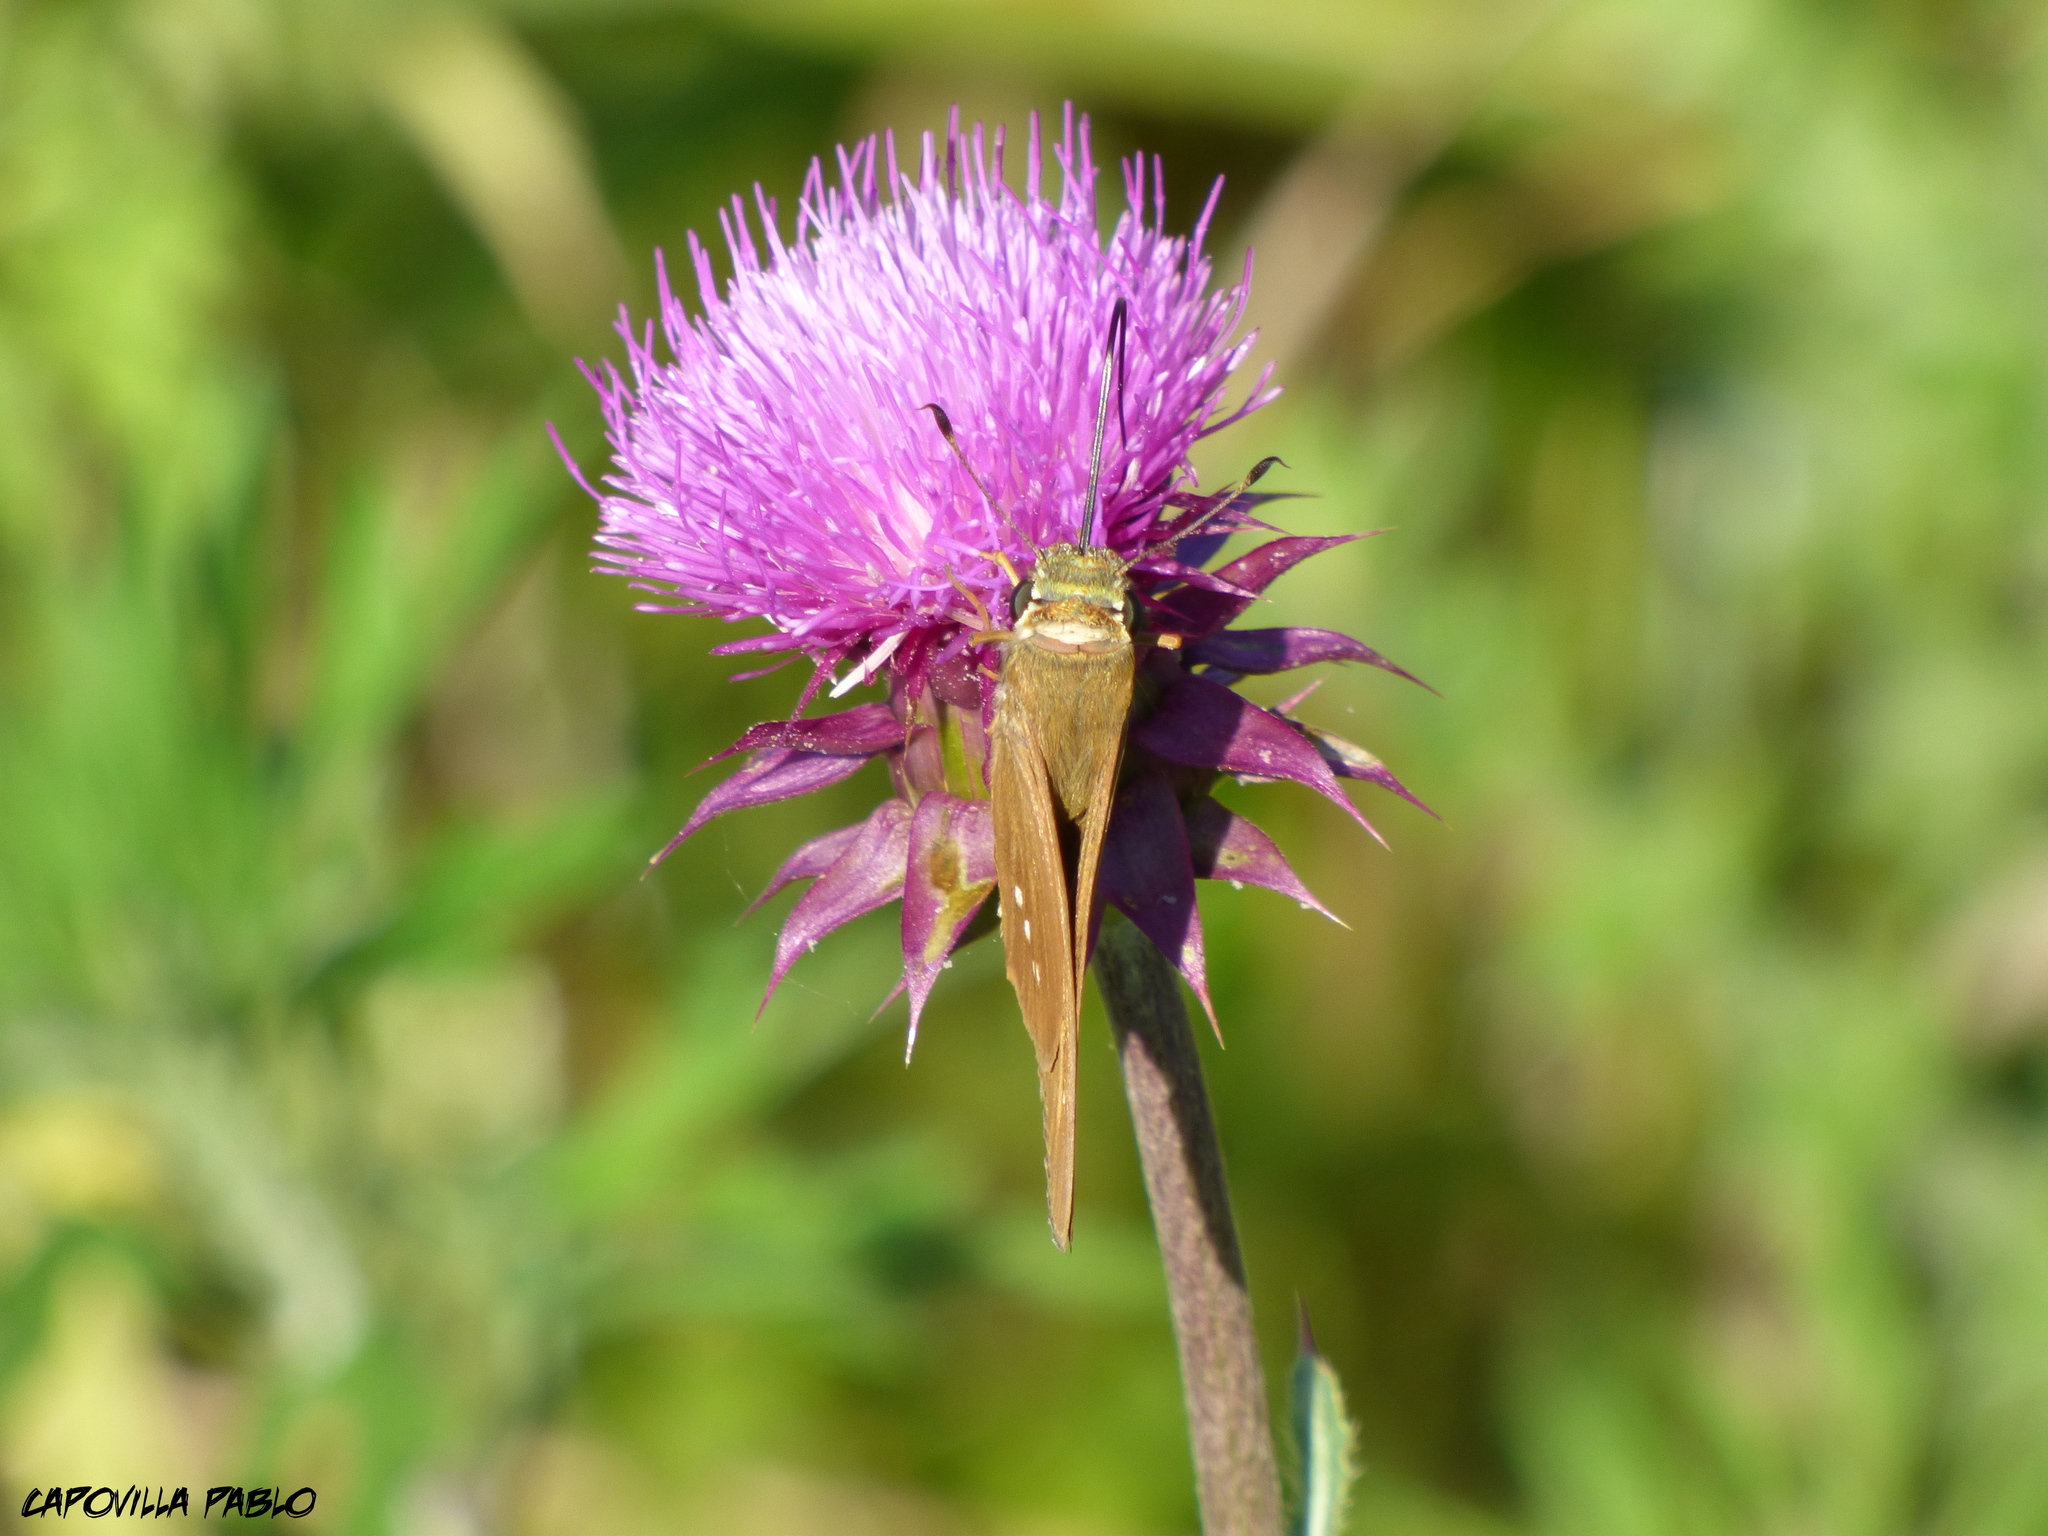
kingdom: Animalia
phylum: Arthropoda
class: Insecta
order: Lepidoptera
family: Hesperiidae
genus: Calpodes
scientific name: Calpodes ethlius
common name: Brazilian skipper
